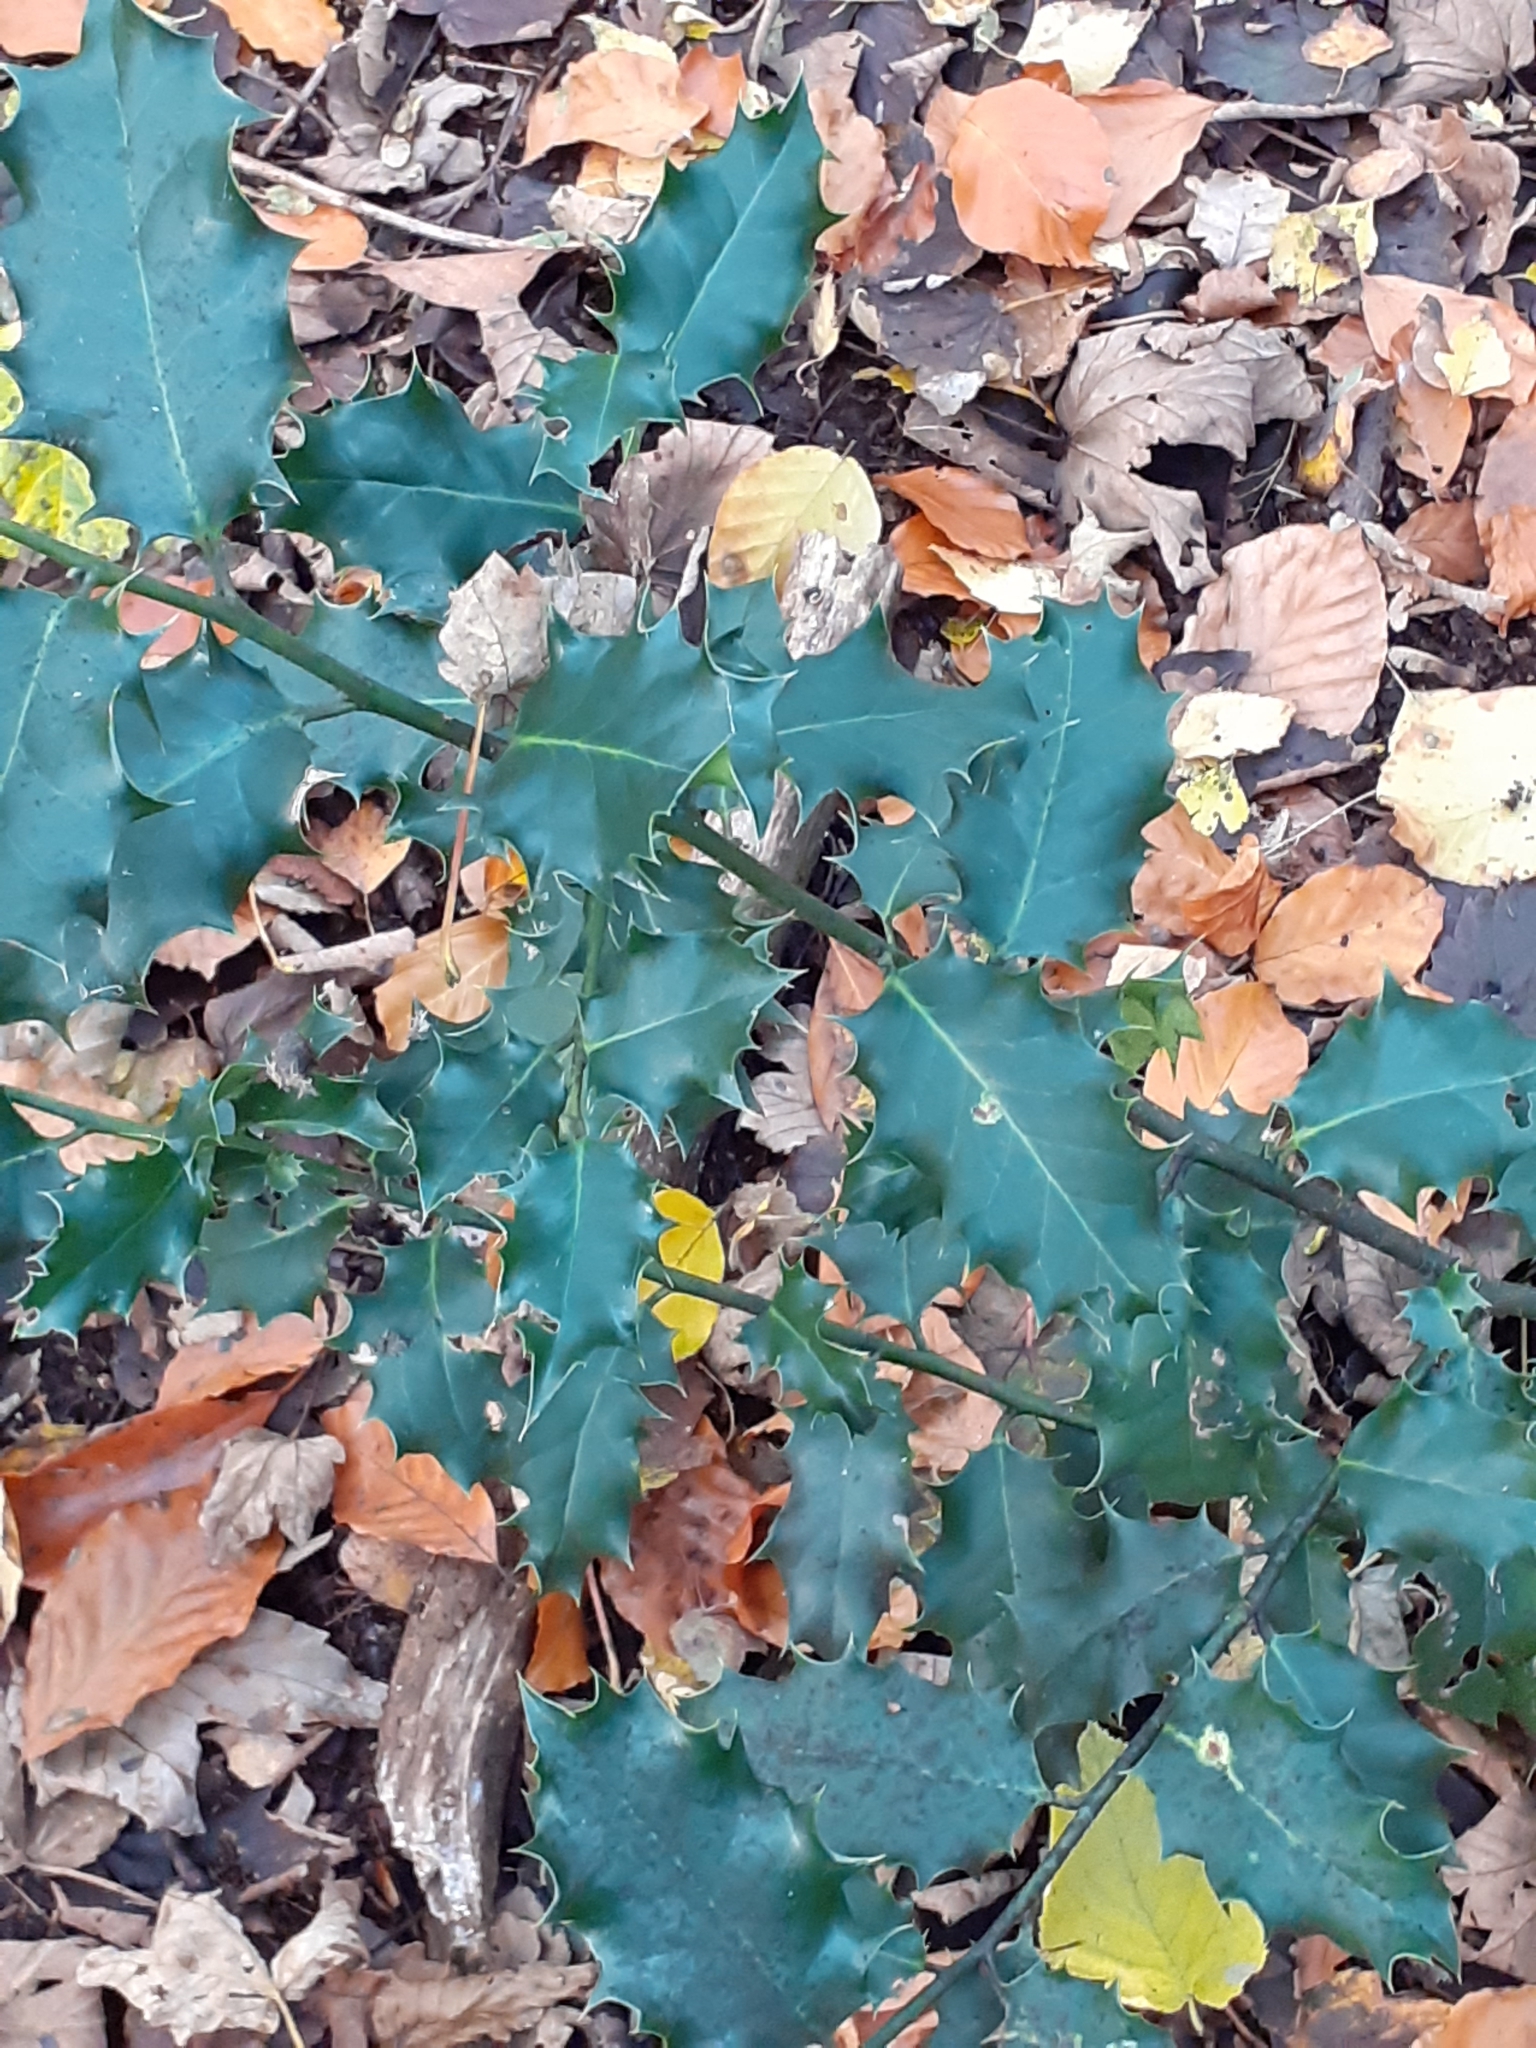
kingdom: Plantae
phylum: Tracheophyta
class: Magnoliopsida
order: Aquifoliales
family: Aquifoliaceae
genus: Ilex
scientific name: Ilex aquifolium
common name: English holly
